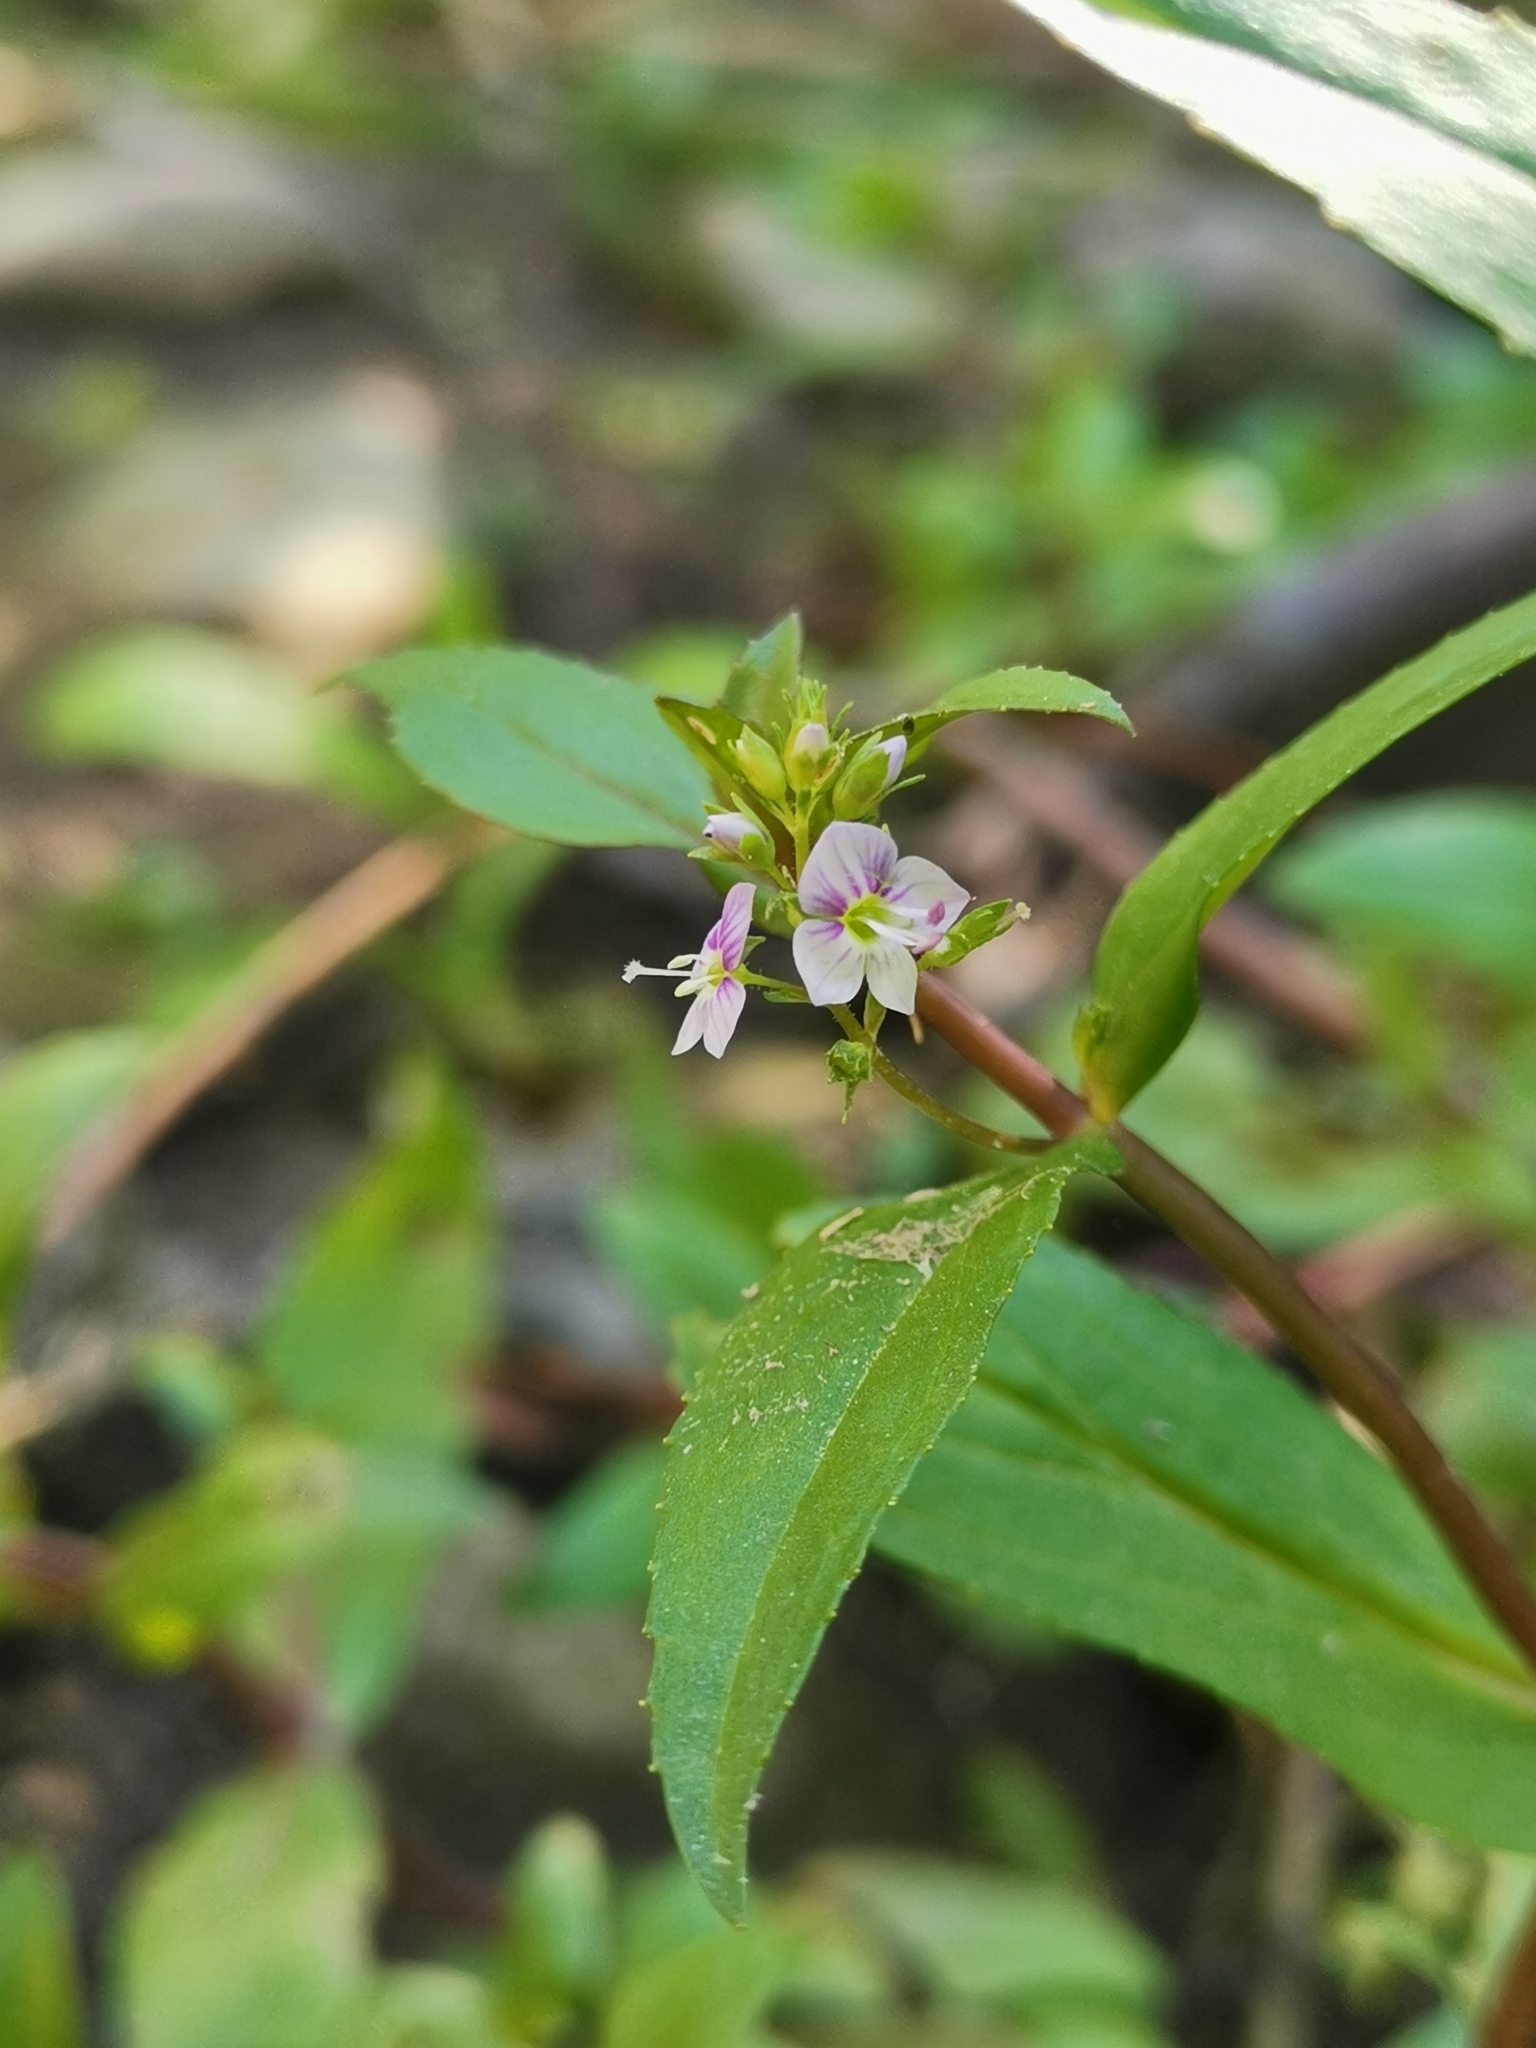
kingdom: Plantae
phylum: Tracheophyta
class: Magnoliopsida
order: Lamiales
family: Plantaginaceae
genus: Veronica
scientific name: Veronica anagallis-aquatica
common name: Water speedwell
